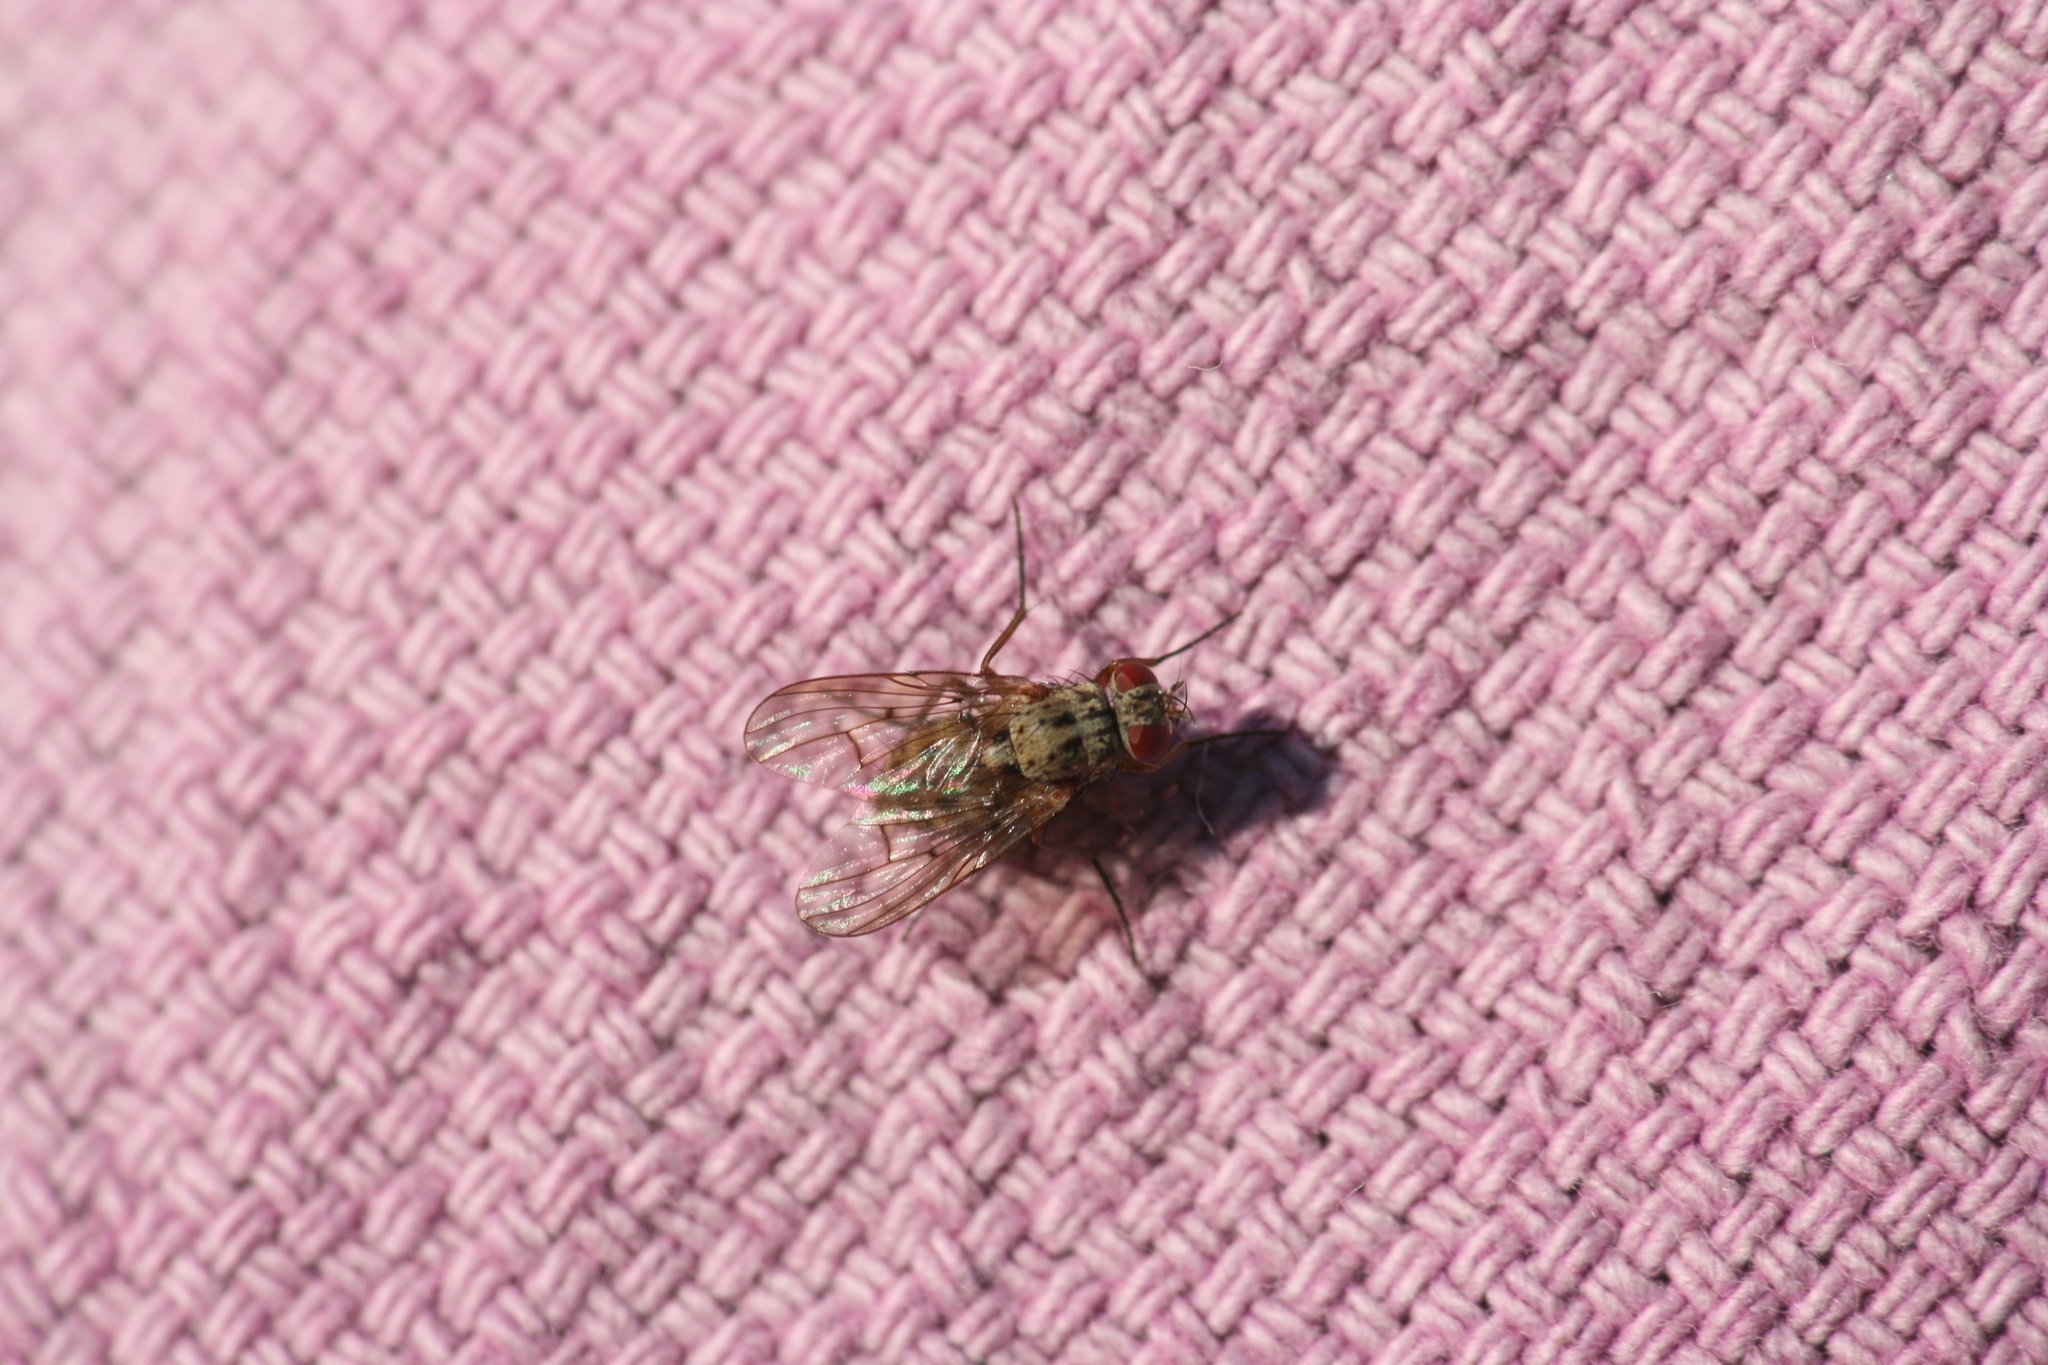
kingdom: Animalia
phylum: Arthropoda
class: Insecta
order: Diptera
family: Muscidae
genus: Helina
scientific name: Helina sexmaculata
